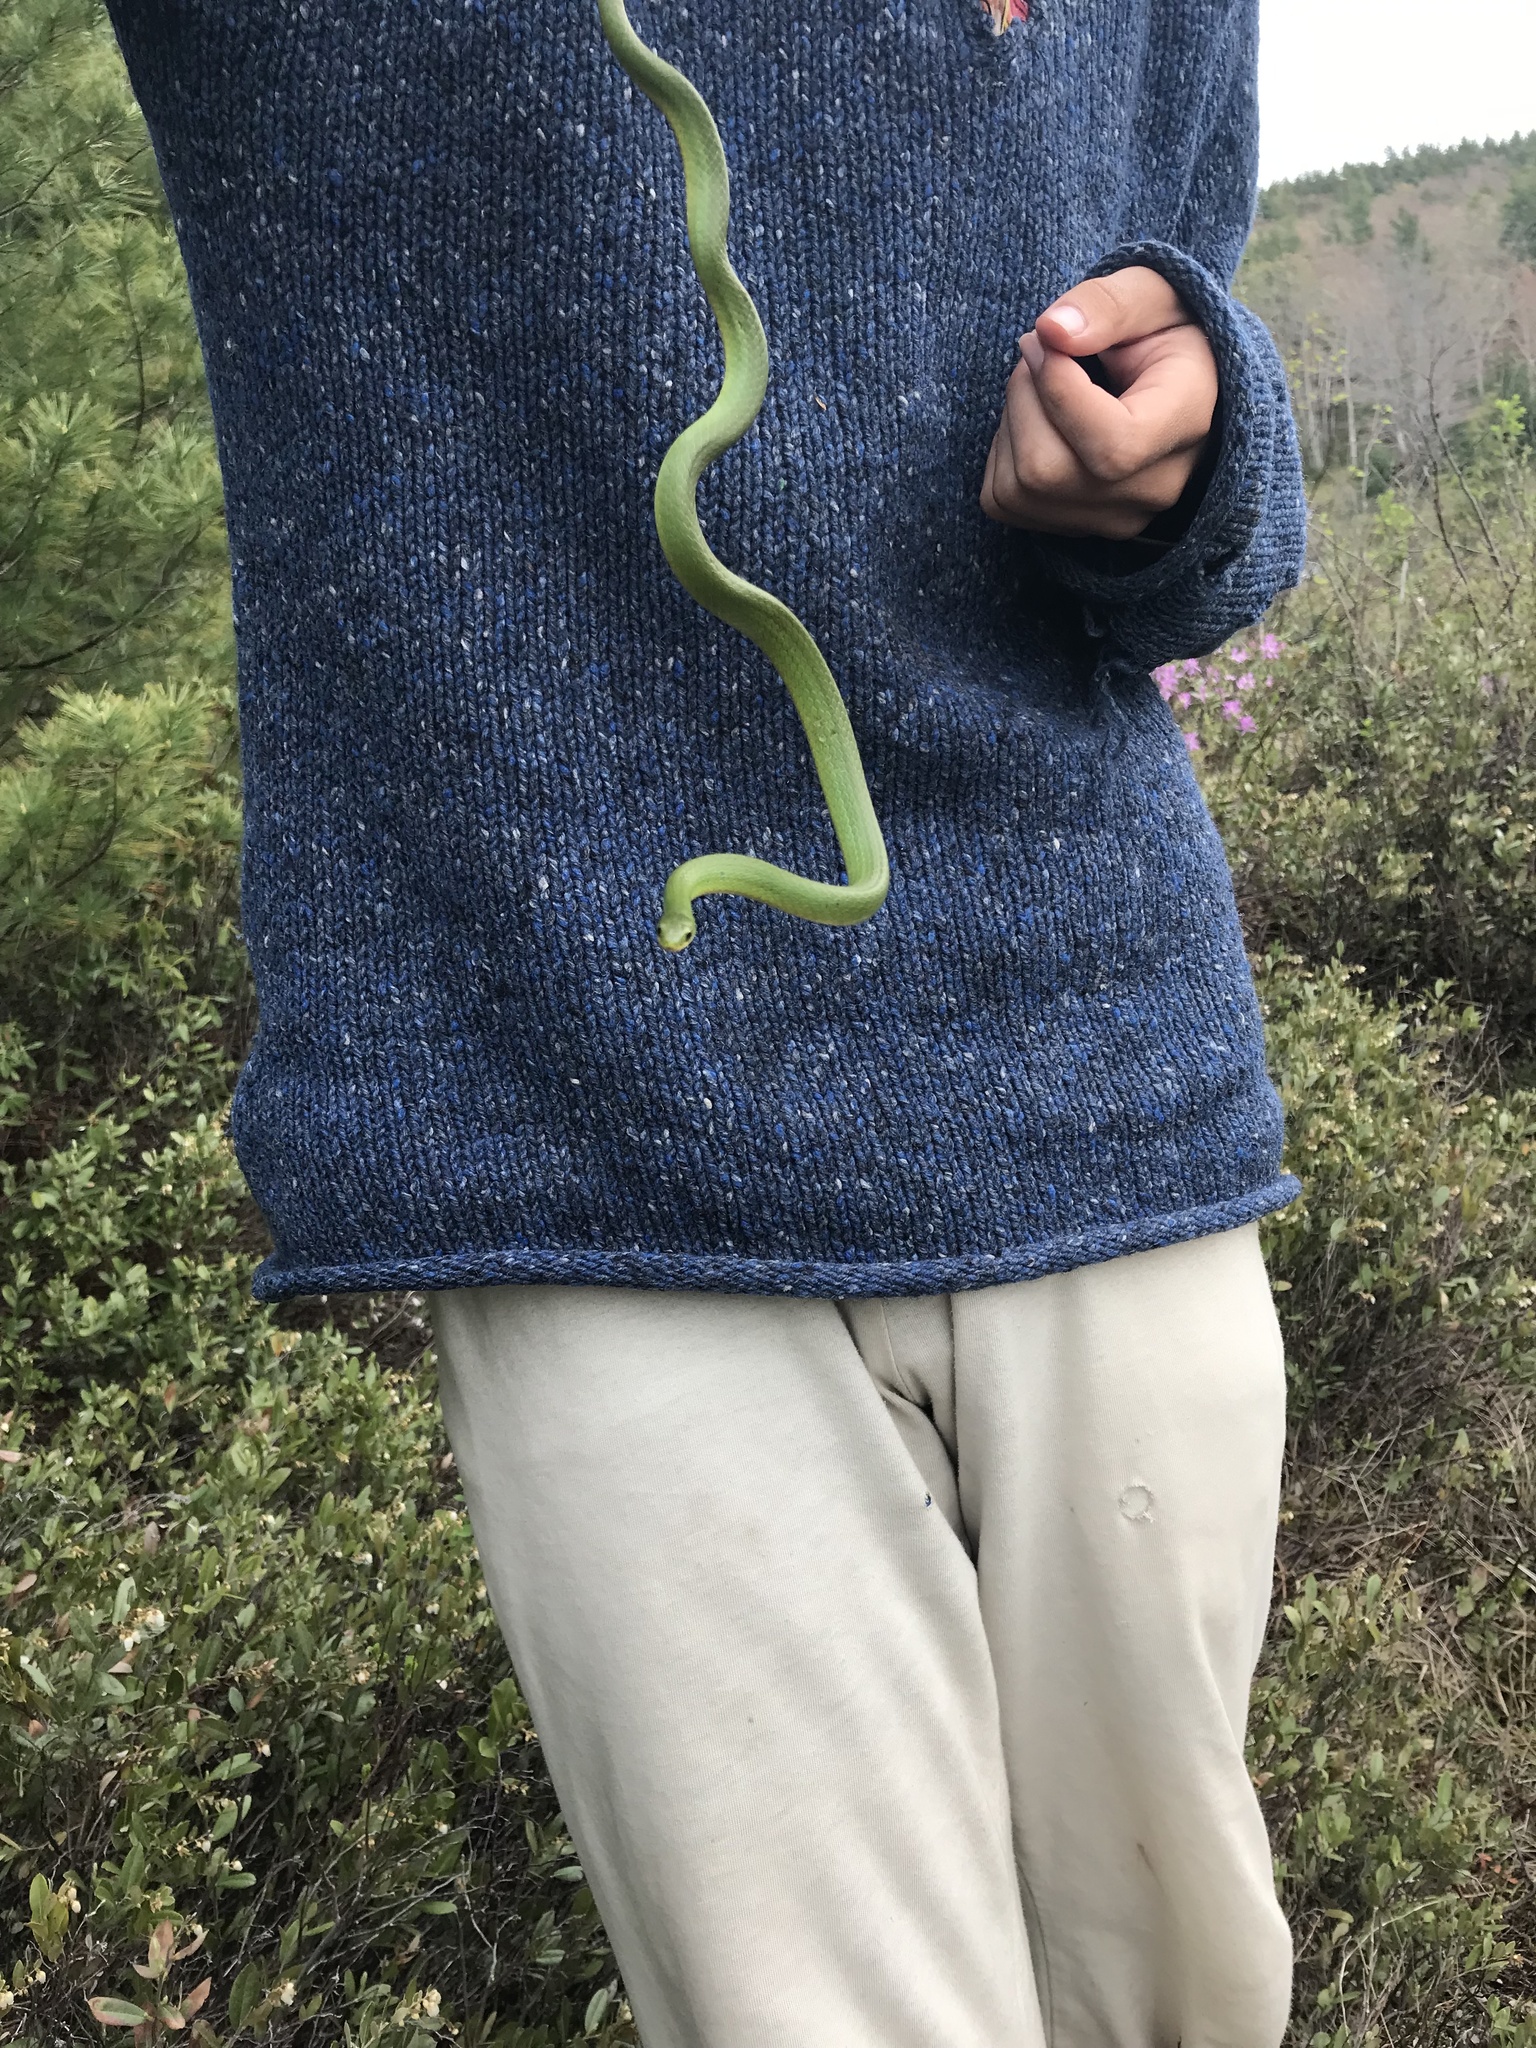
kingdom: Animalia
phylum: Chordata
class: Squamata
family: Colubridae
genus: Opheodrys
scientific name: Opheodrys vernalis
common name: Smooth green snake
